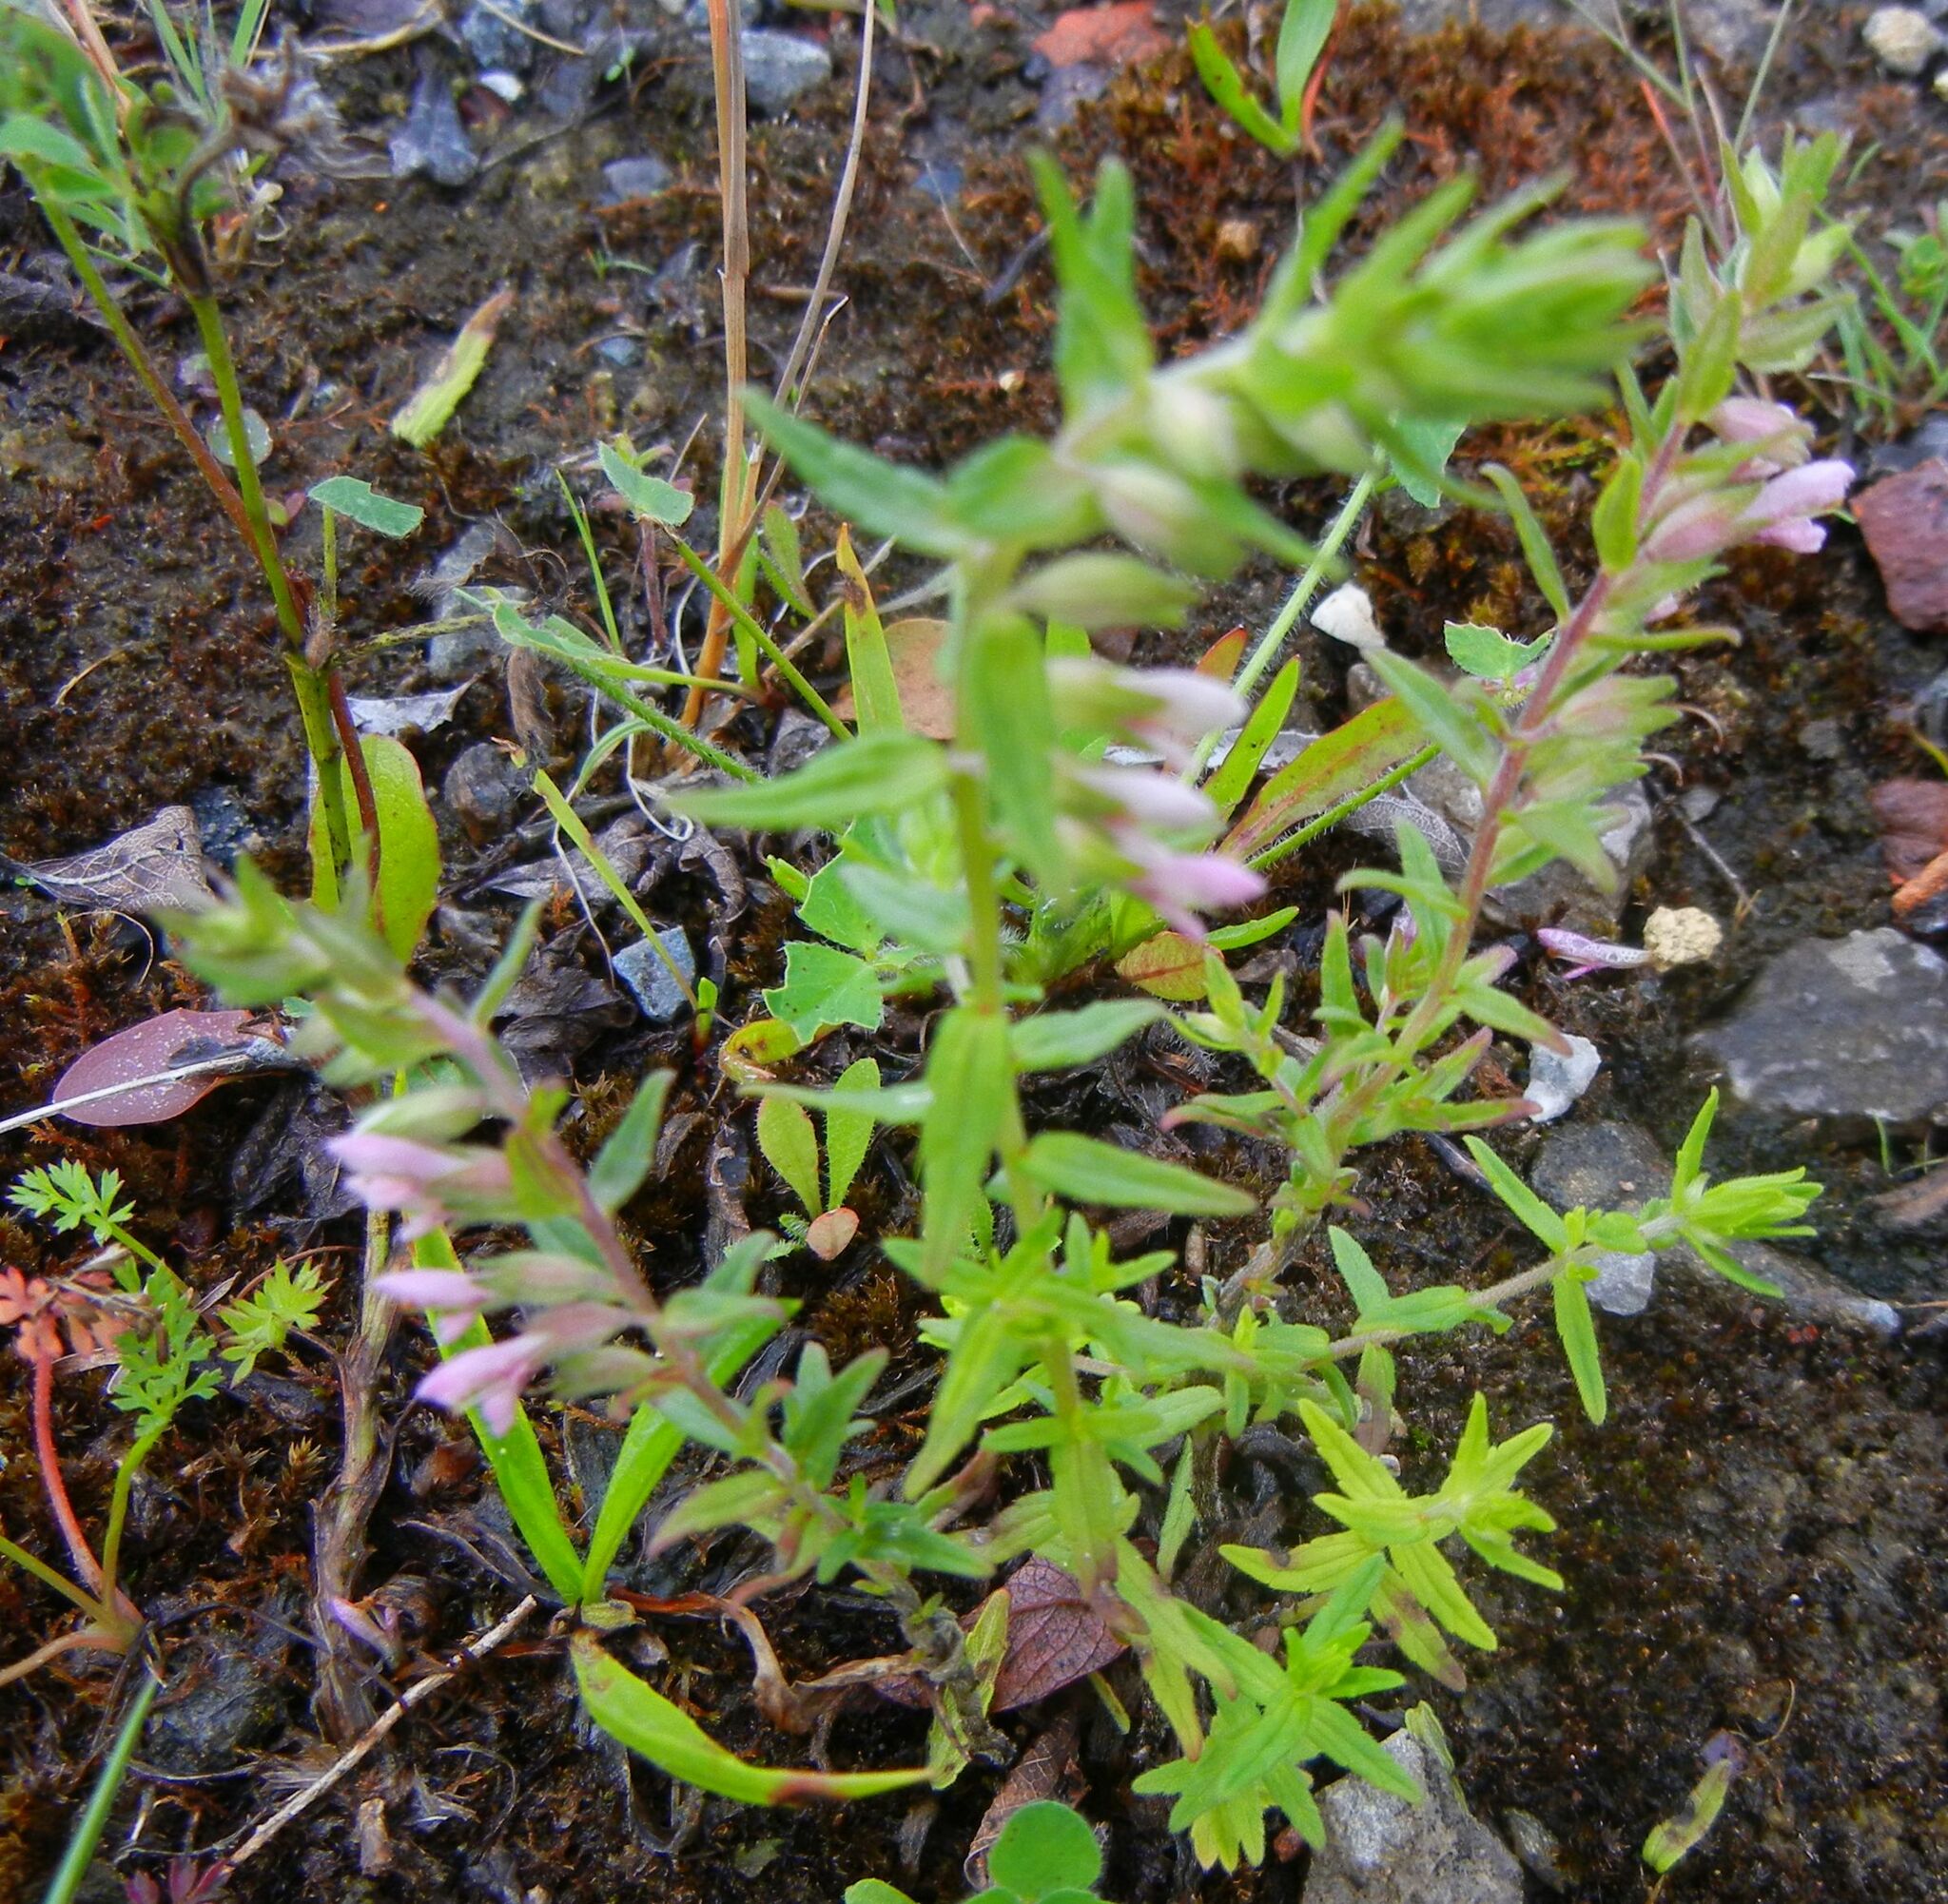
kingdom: Plantae
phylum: Tracheophyta
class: Magnoliopsida
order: Lamiales
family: Orobanchaceae
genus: Odontites
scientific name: Odontites vulgaris
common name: Broomrape
